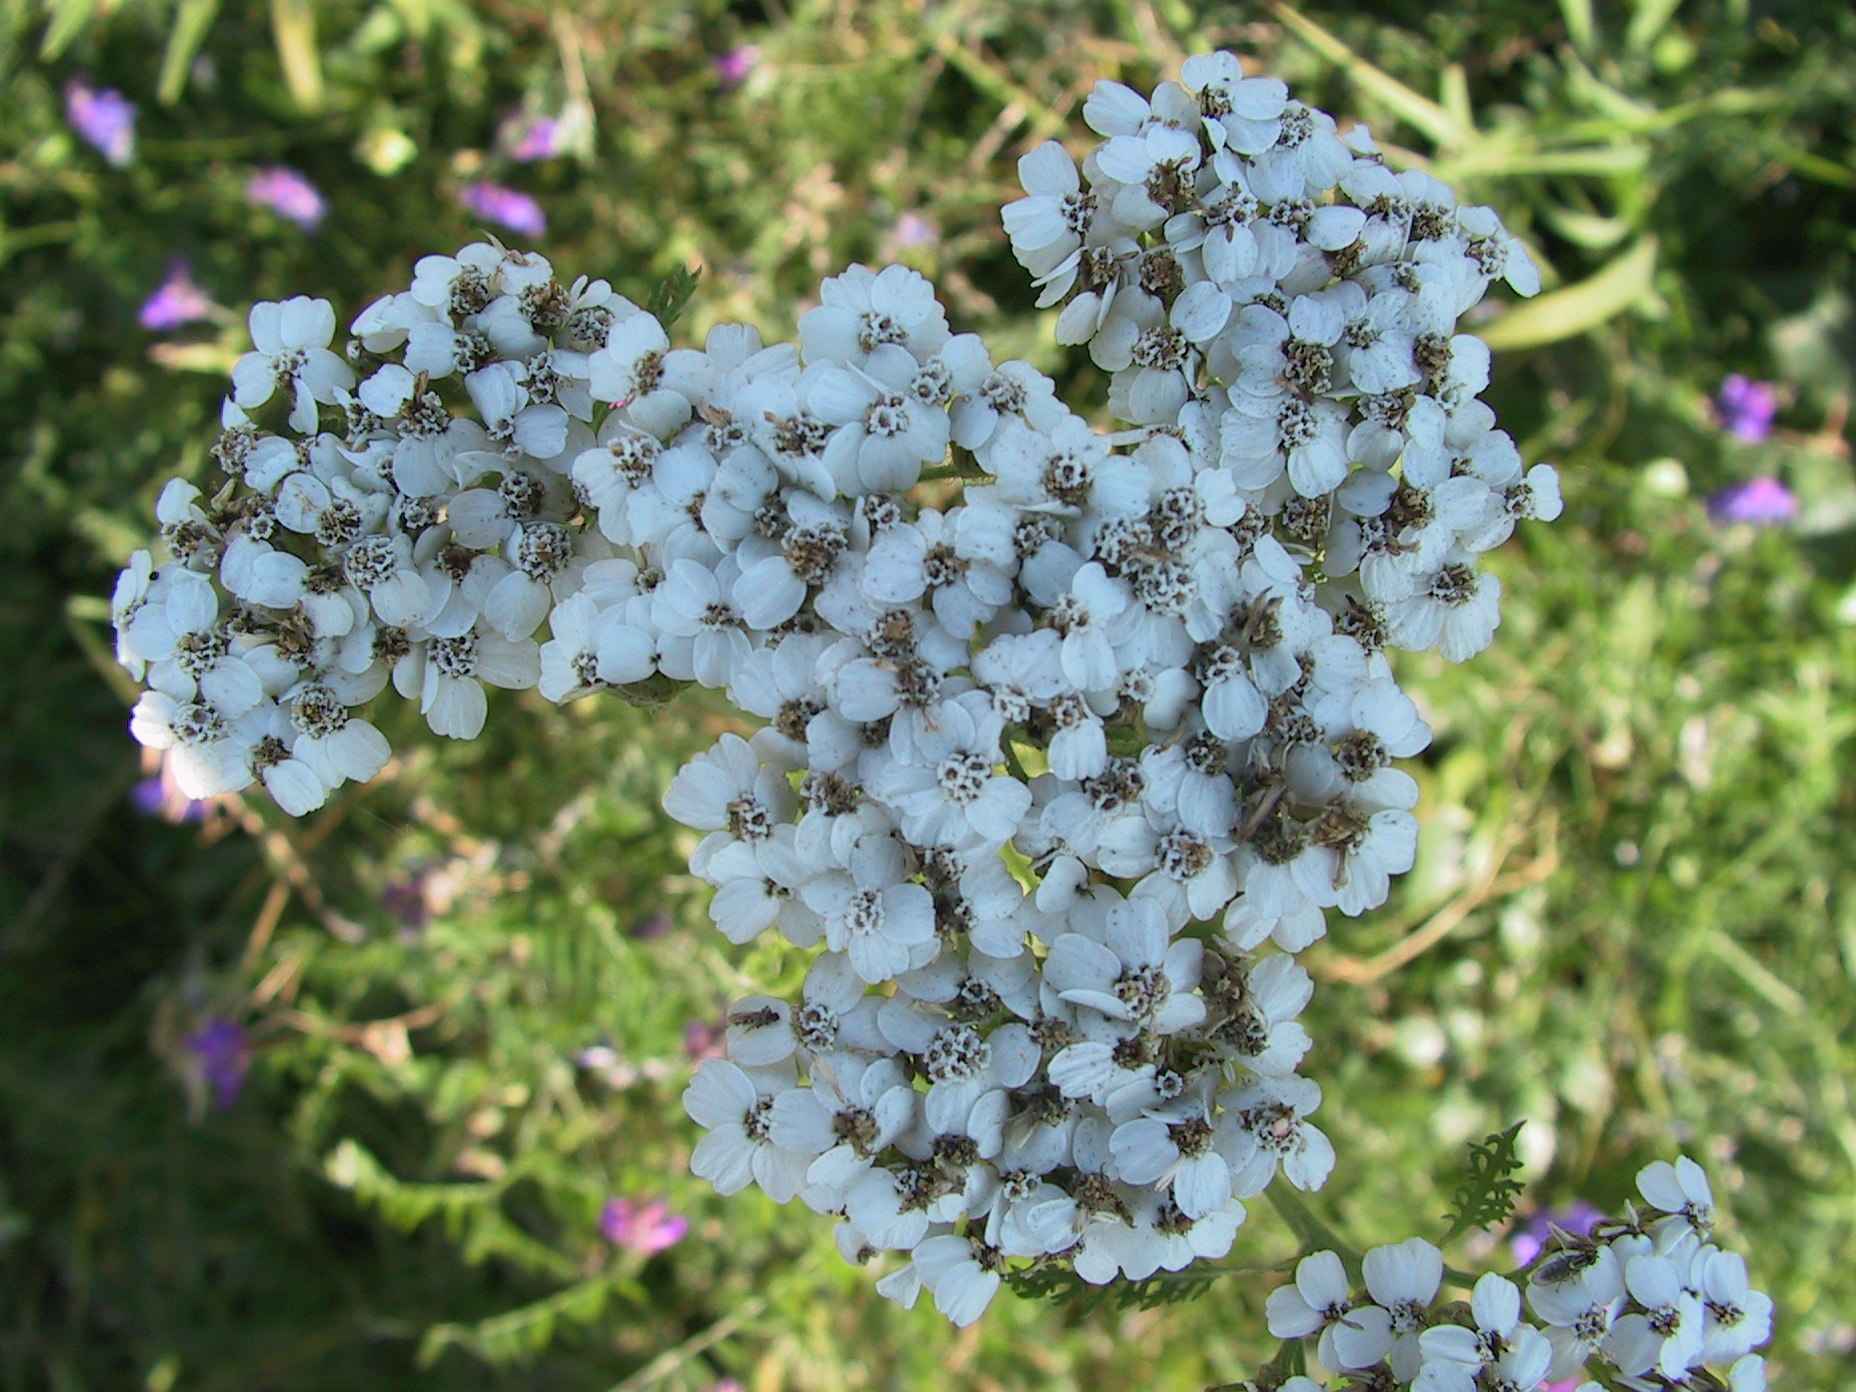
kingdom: Plantae
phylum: Tracheophyta
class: Magnoliopsida
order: Asterales
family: Asteraceae
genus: Achillea
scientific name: Achillea millefolium
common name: Yarrow
